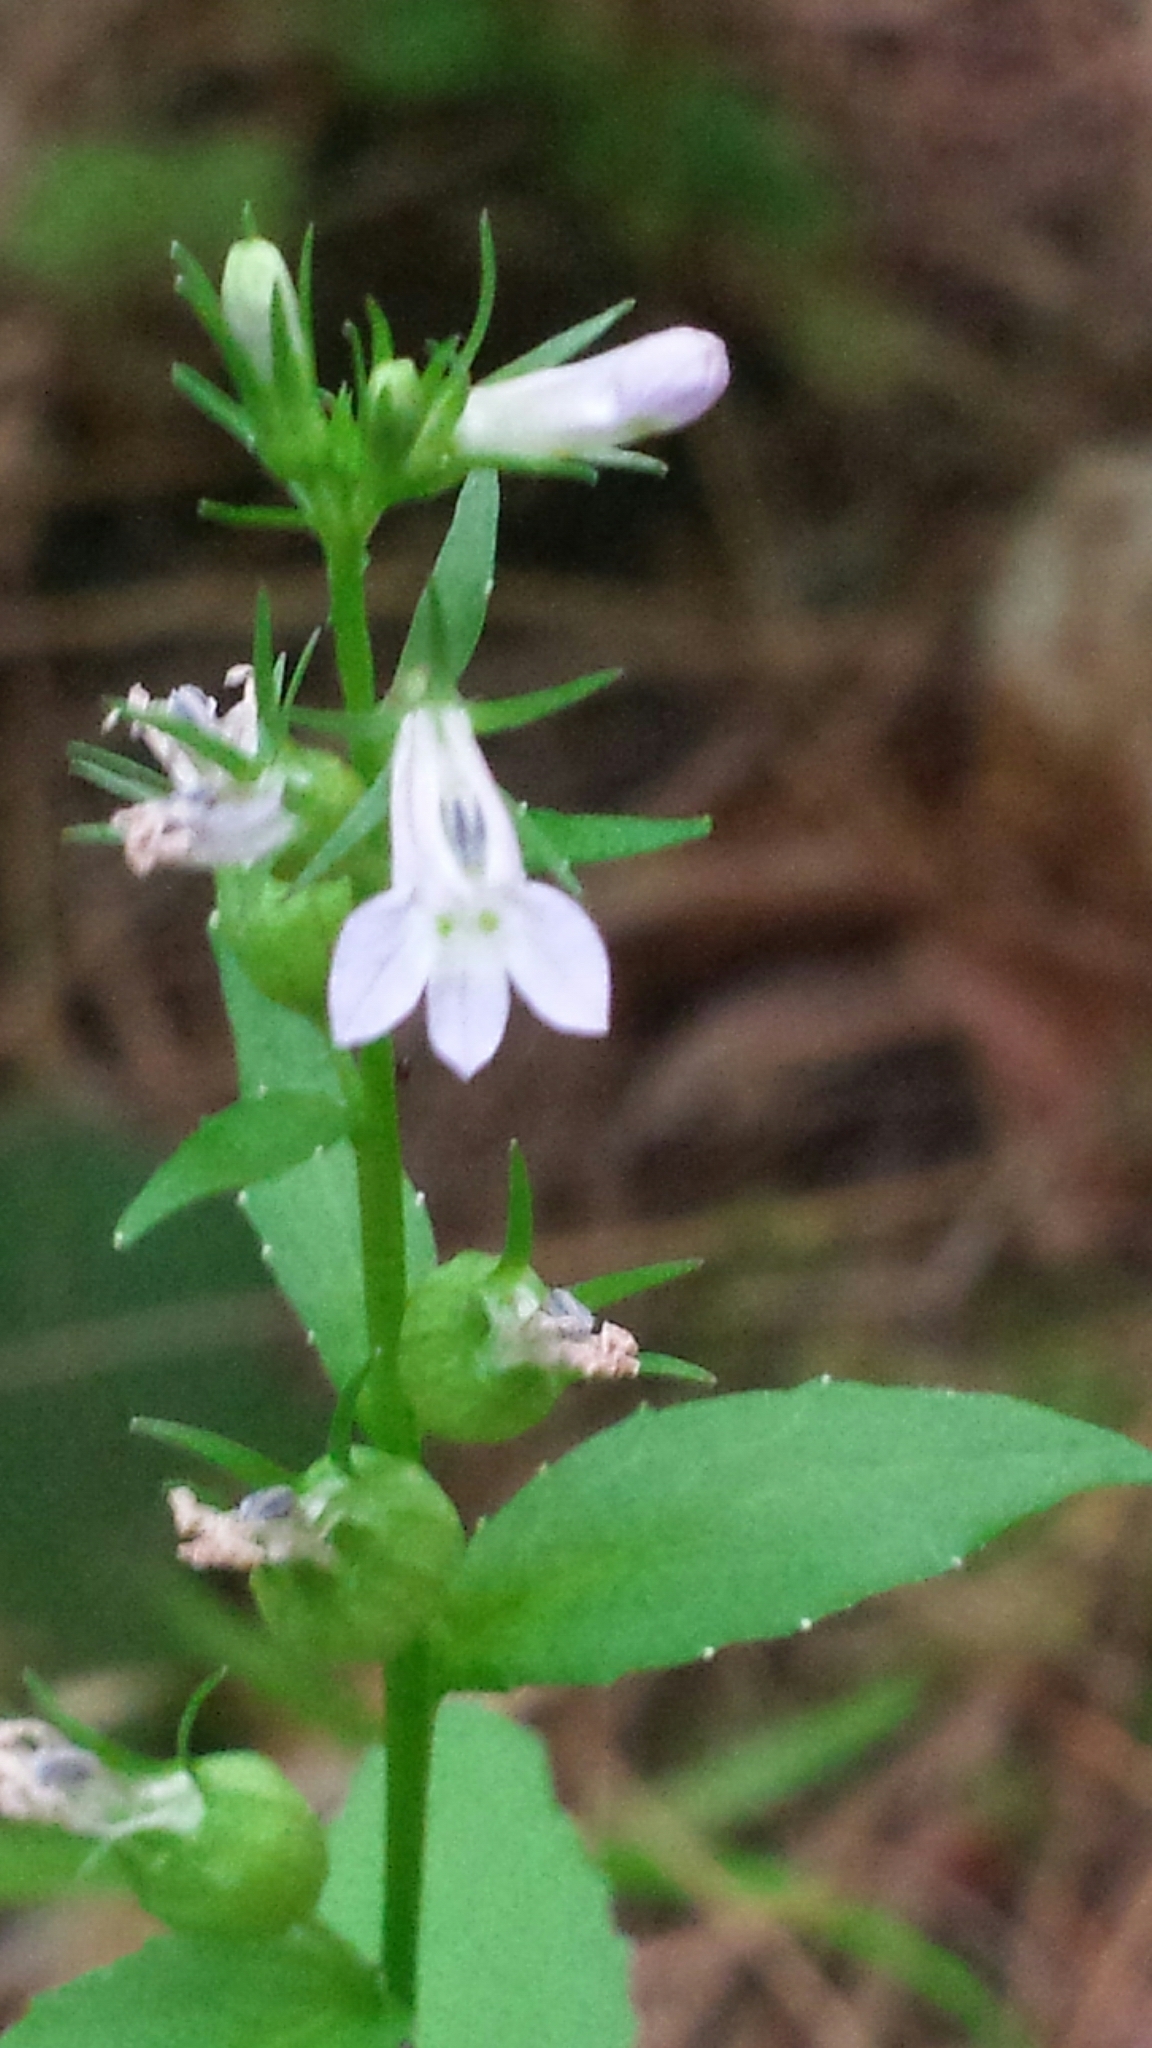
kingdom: Plantae
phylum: Tracheophyta
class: Magnoliopsida
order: Asterales
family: Campanulaceae
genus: Lobelia
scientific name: Lobelia inflata
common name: Indian tobacco
